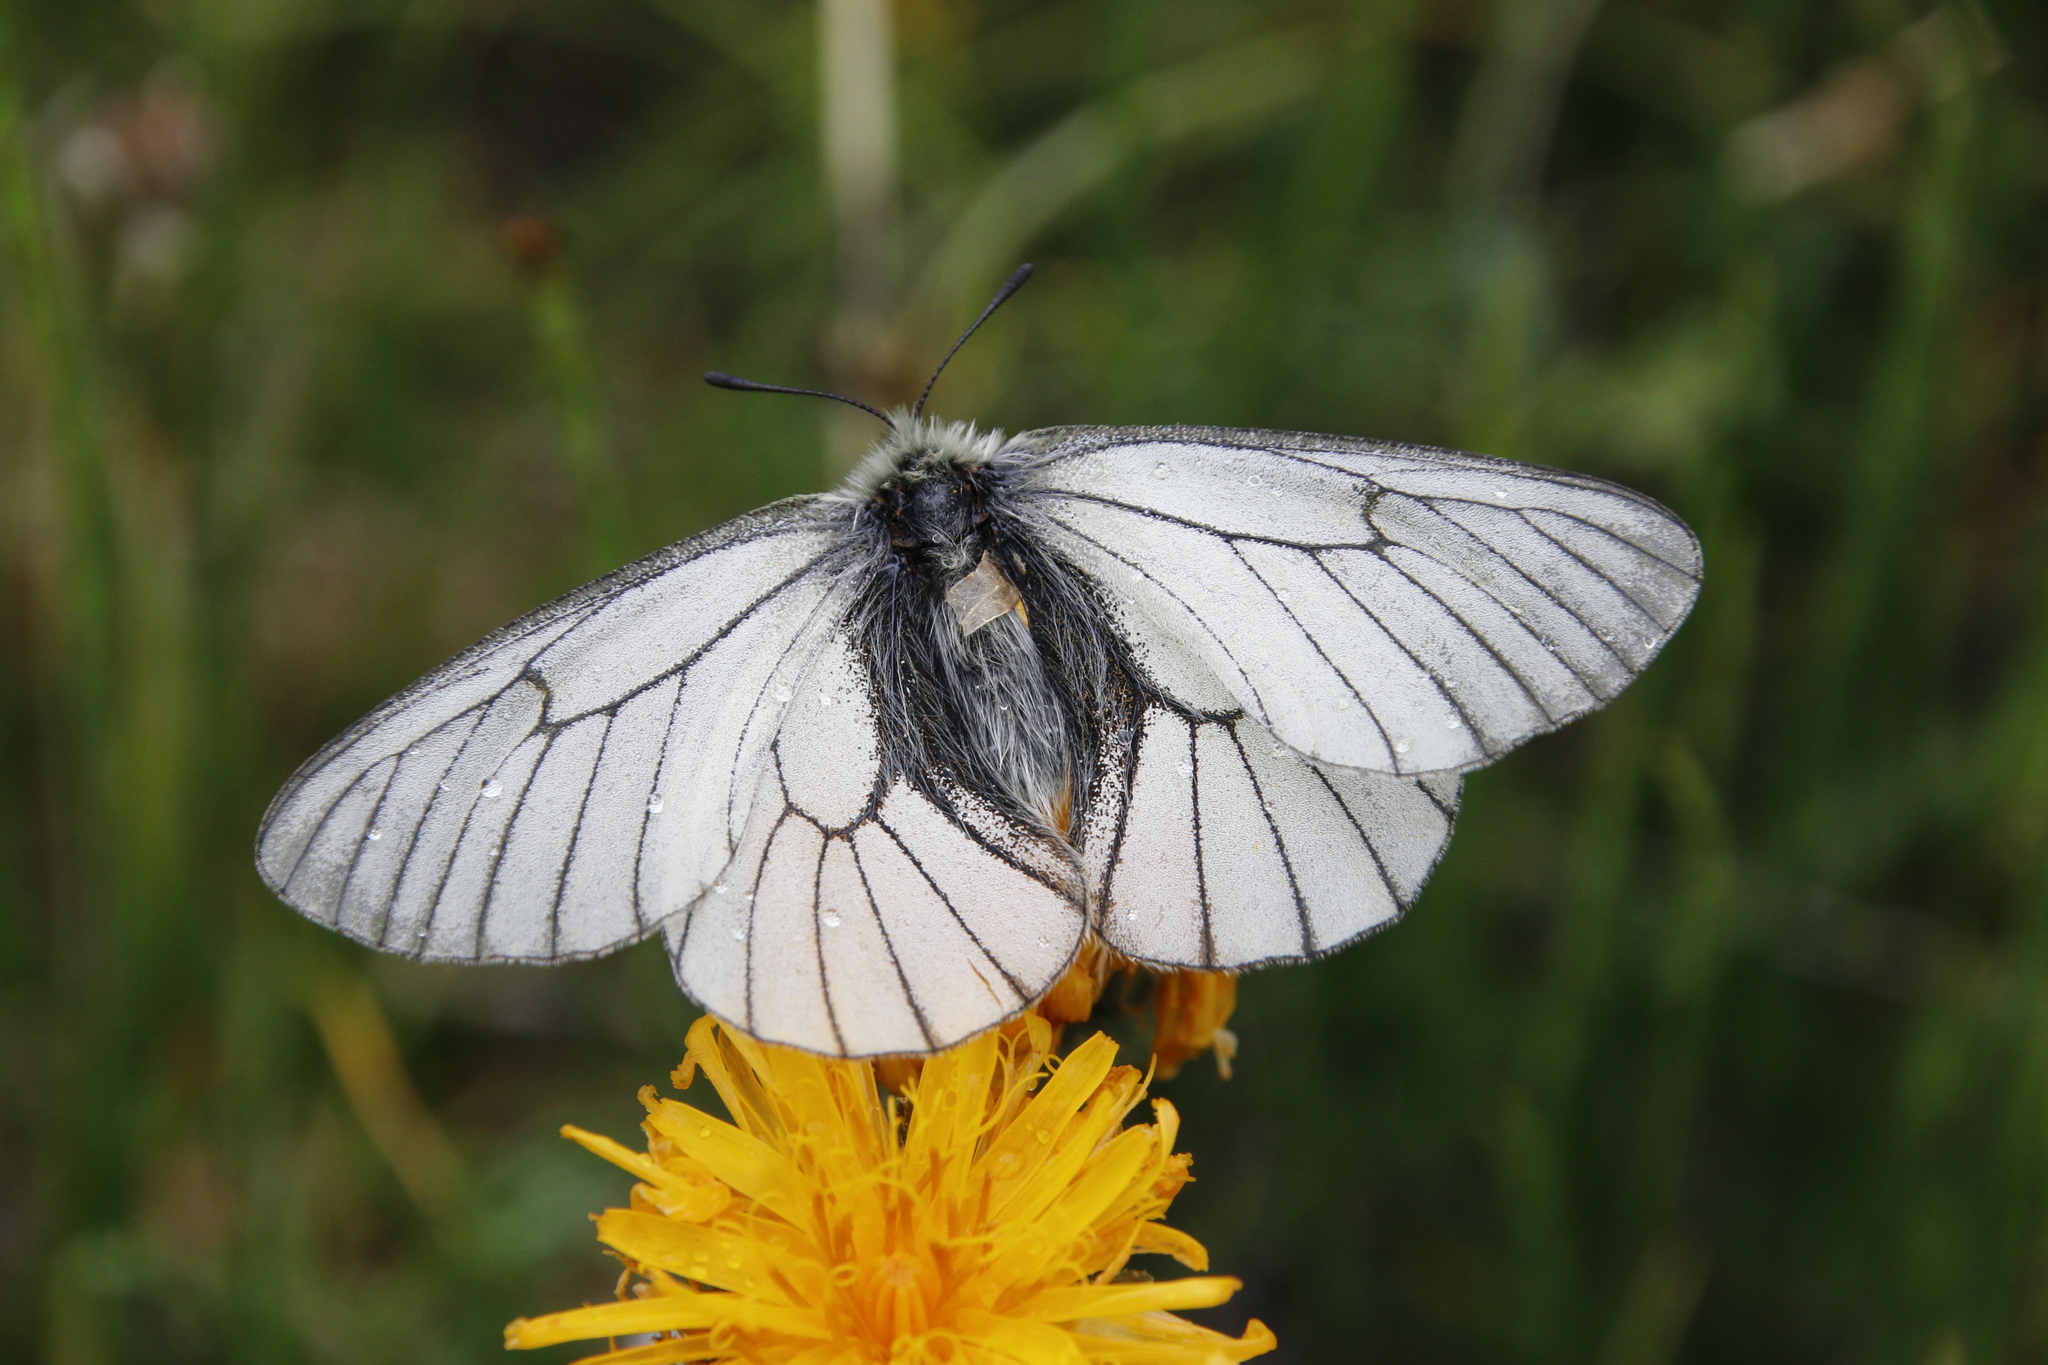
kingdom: Animalia
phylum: Arthropoda
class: Insecta
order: Lepidoptera
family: Papilionidae
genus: Parnassius
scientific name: Parnassius stubbendorfii
